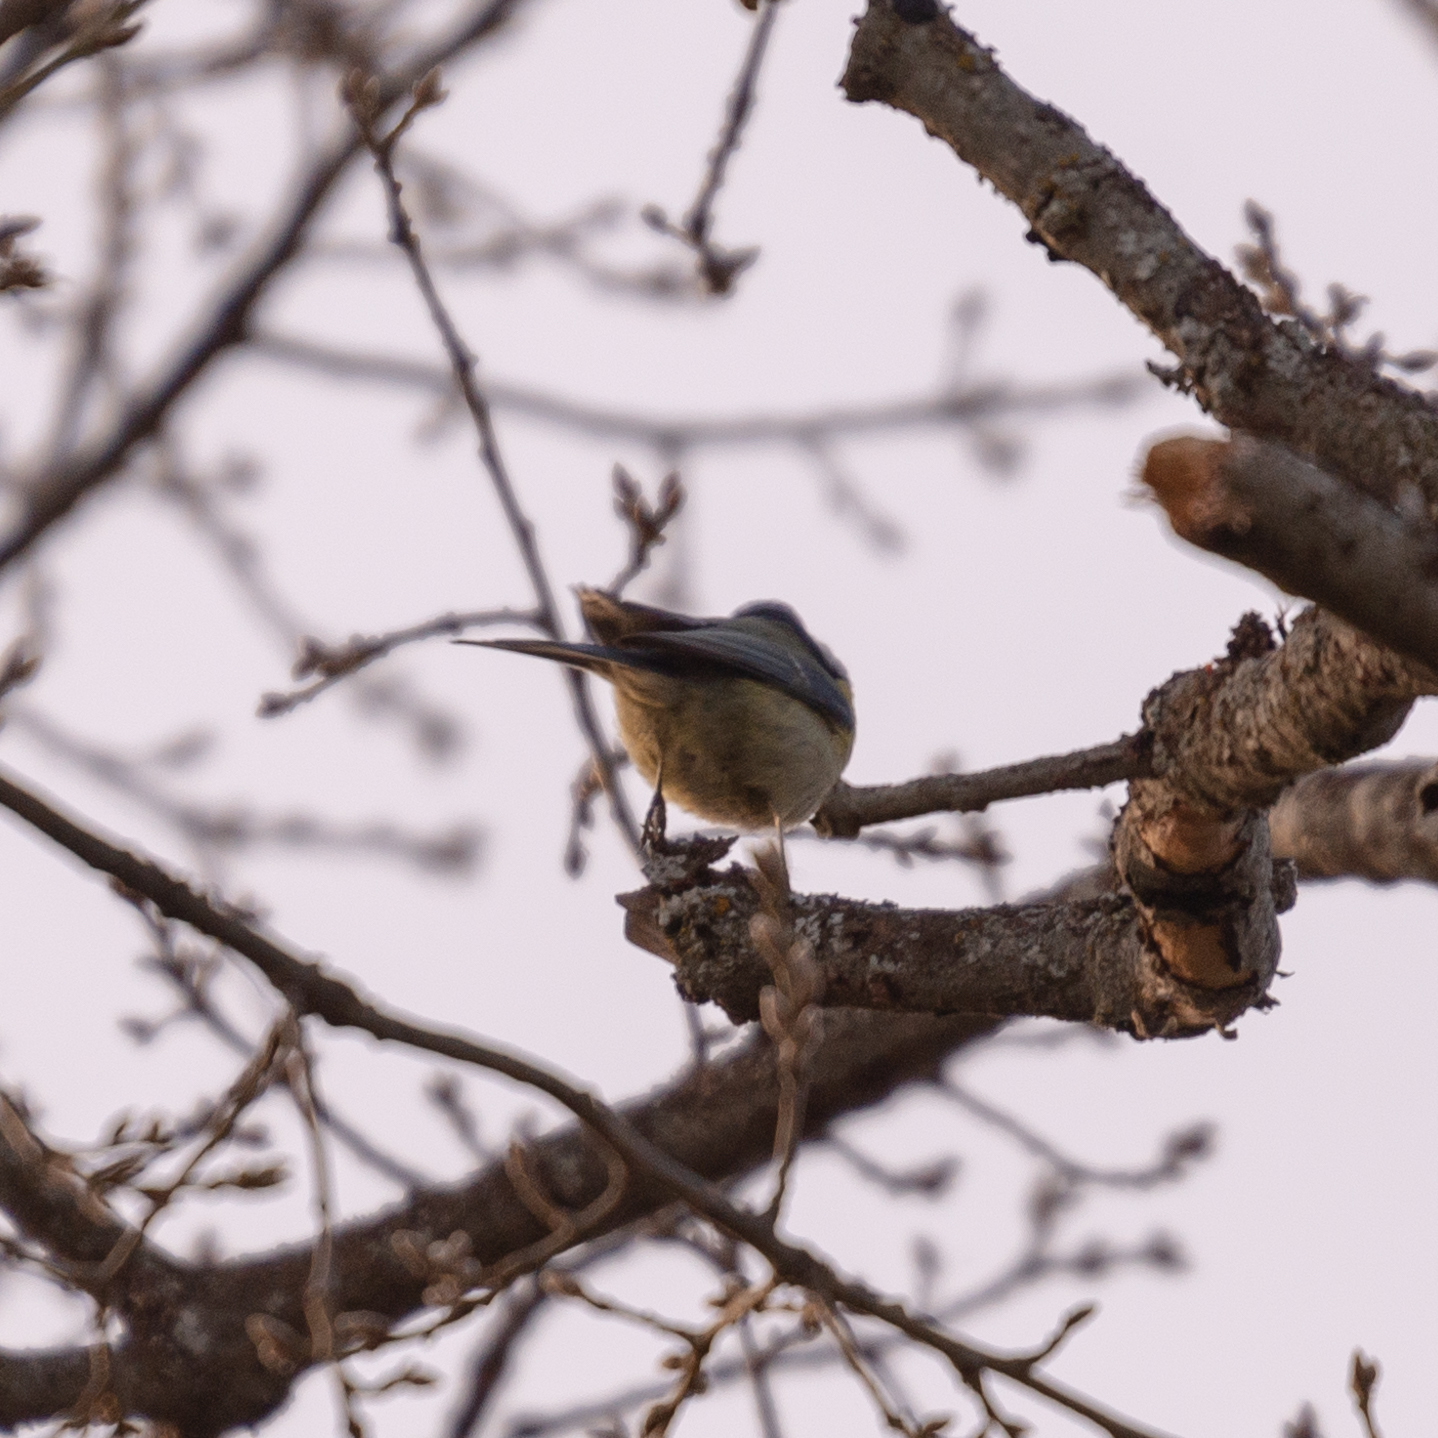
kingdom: Animalia
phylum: Chordata
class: Aves
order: Passeriformes
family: Paridae
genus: Cyanistes
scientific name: Cyanistes caeruleus
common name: Eurasian blue tit
